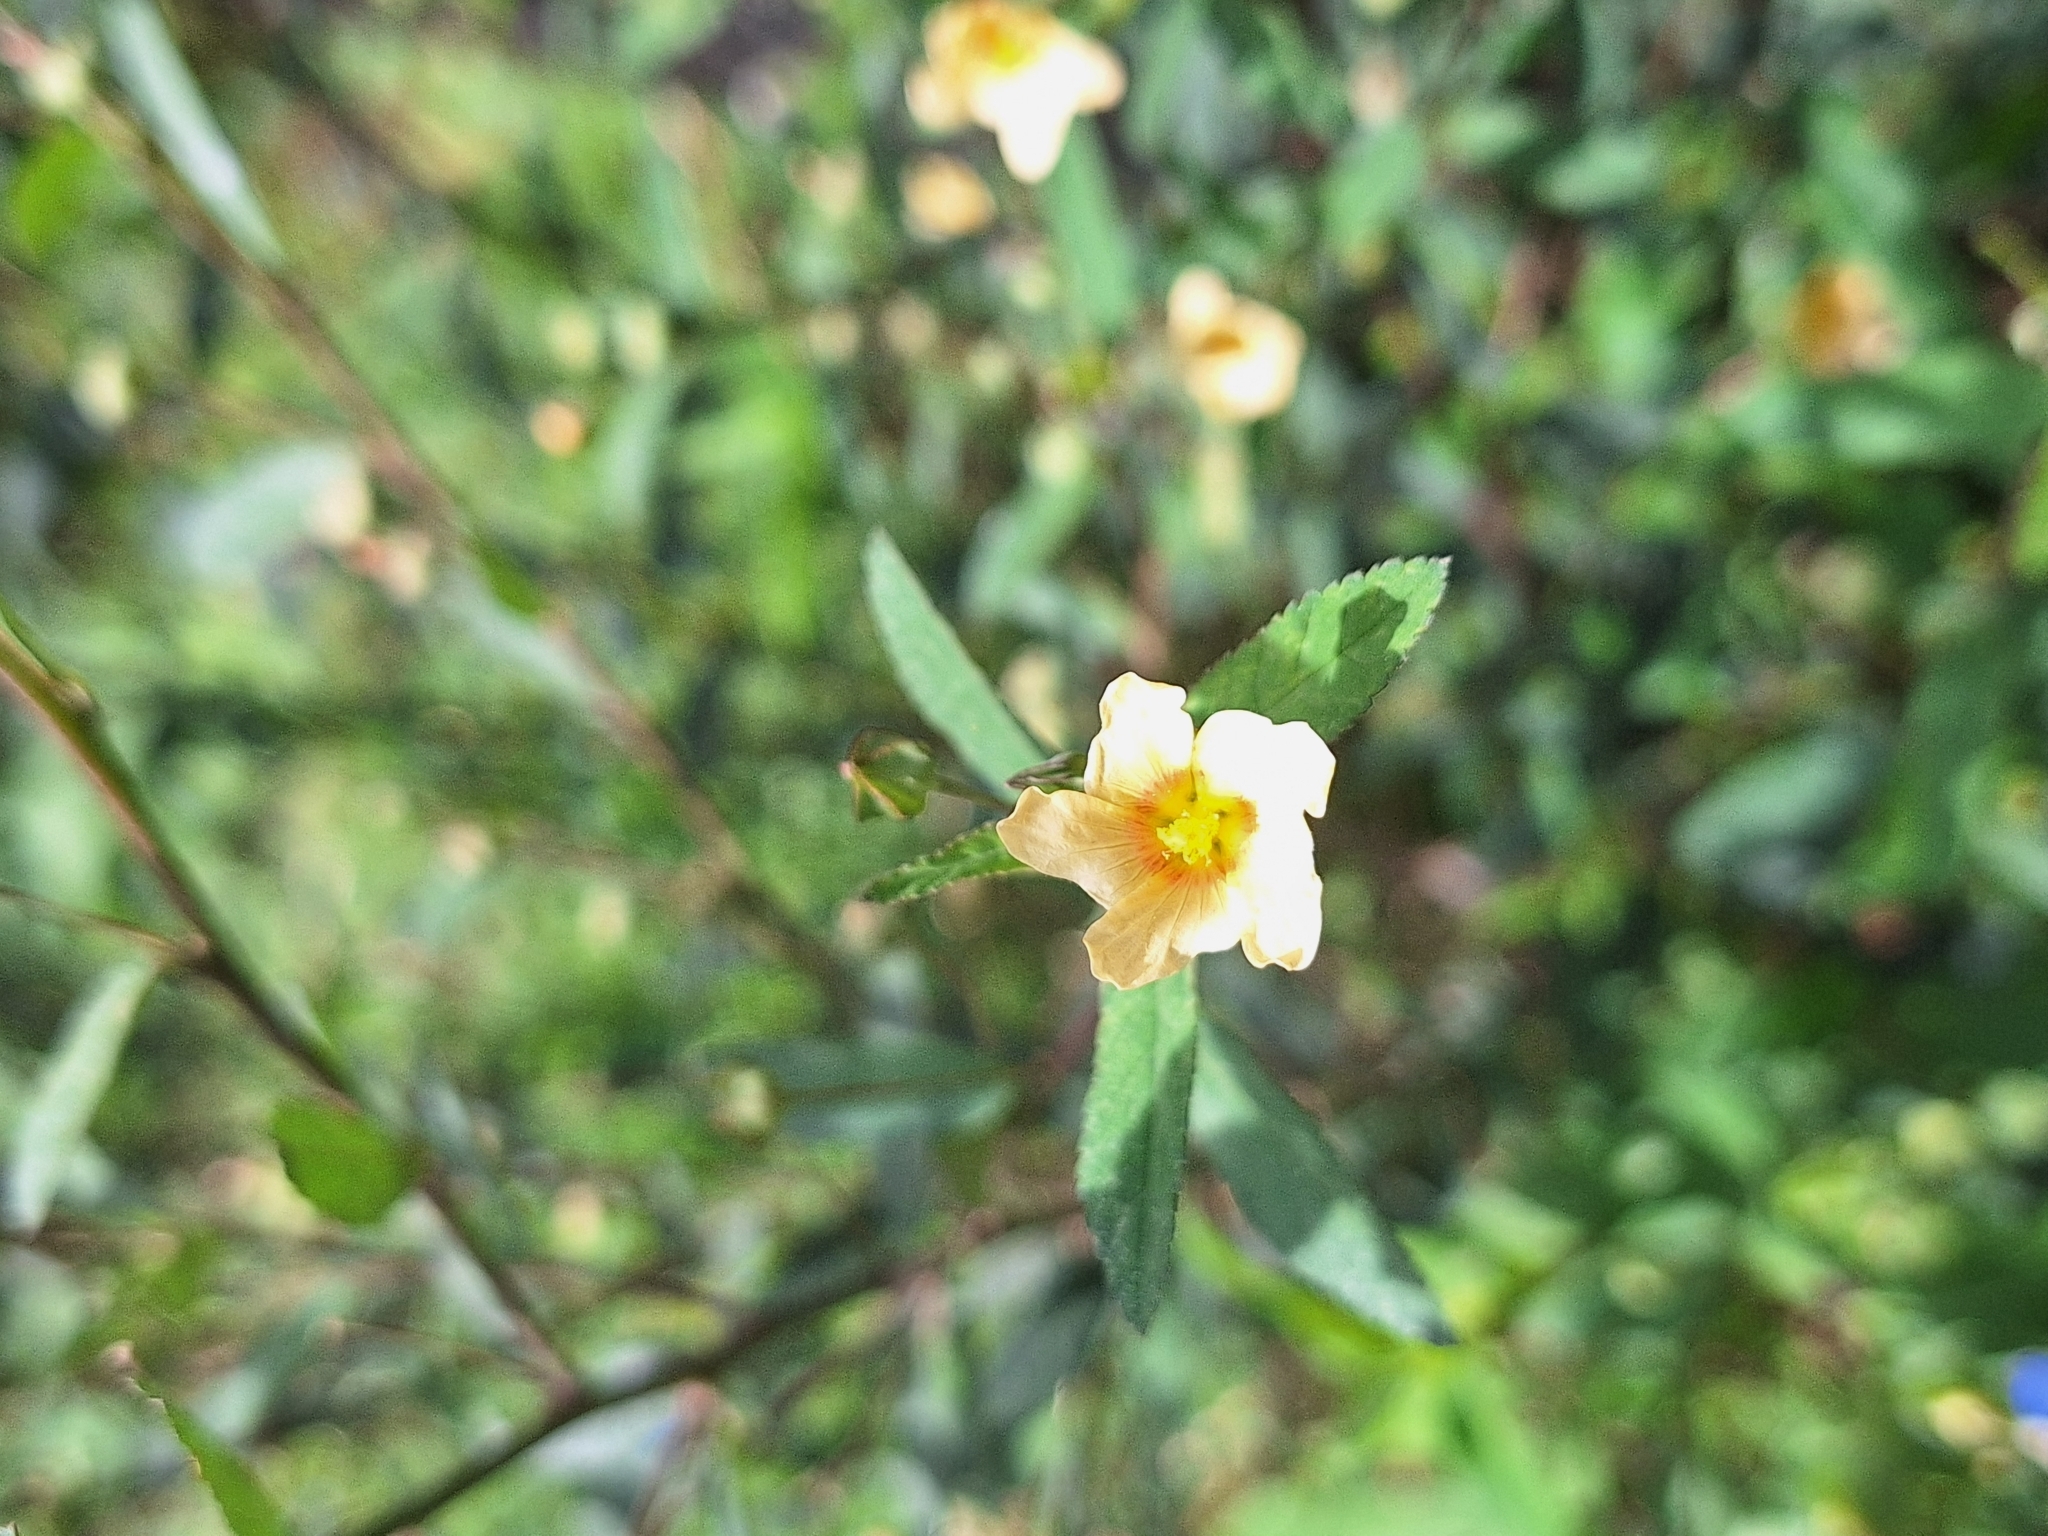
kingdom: Plantae
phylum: Tracheophyta
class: Magnoliopsida
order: Malvales
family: Malvaceae
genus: Sida
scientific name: Sida rhombifolia
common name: Queensland-hemp
